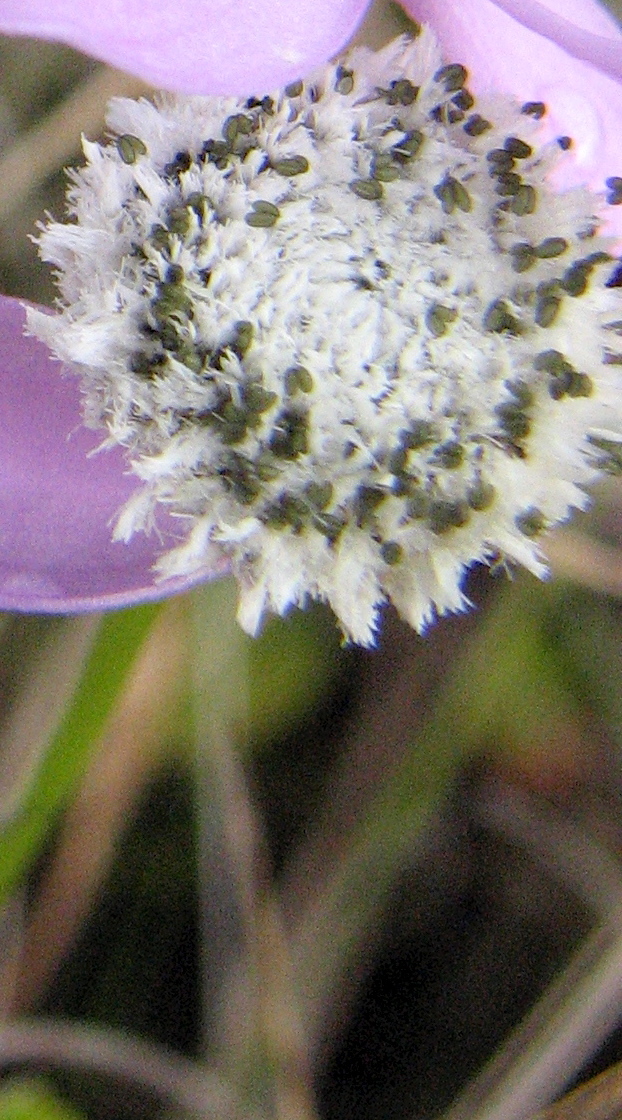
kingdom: Plantae
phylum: Tracheophyta
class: Liliopsida
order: Poales
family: Eriocaulaceae
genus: Eriocaulon
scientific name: Eriocaulon compressum
